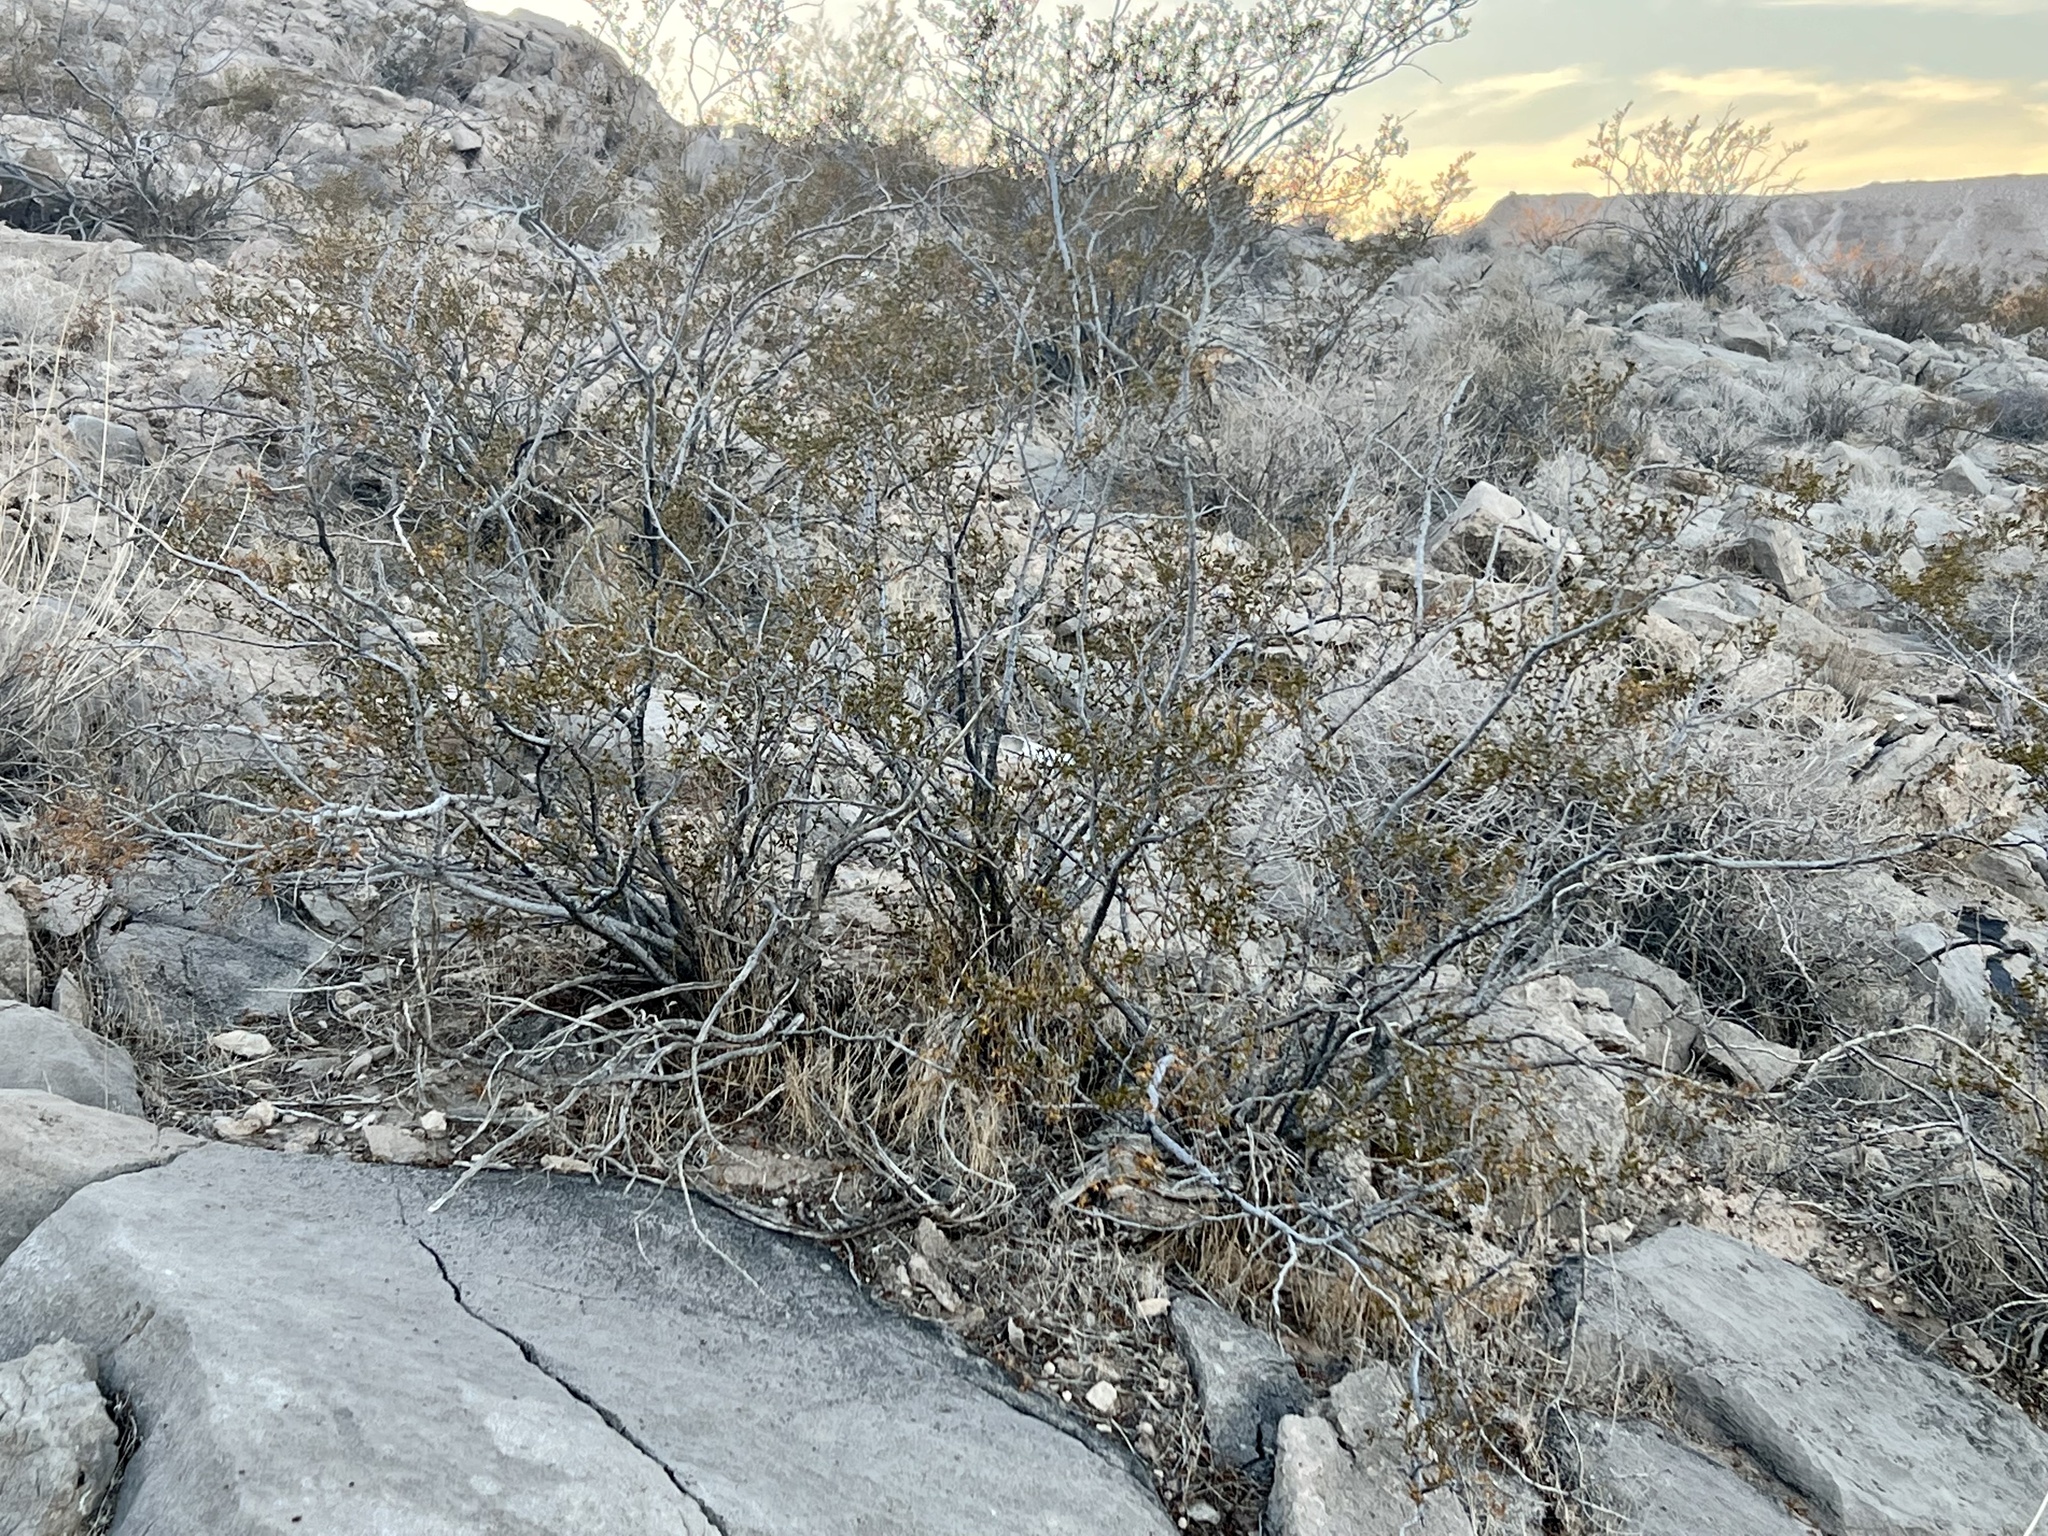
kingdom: Plantae
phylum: Tracheophyta
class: Magnoliopsida
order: Zygophyllales
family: Zygophyllaceae
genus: Larrea
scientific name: Larrea tridentata
